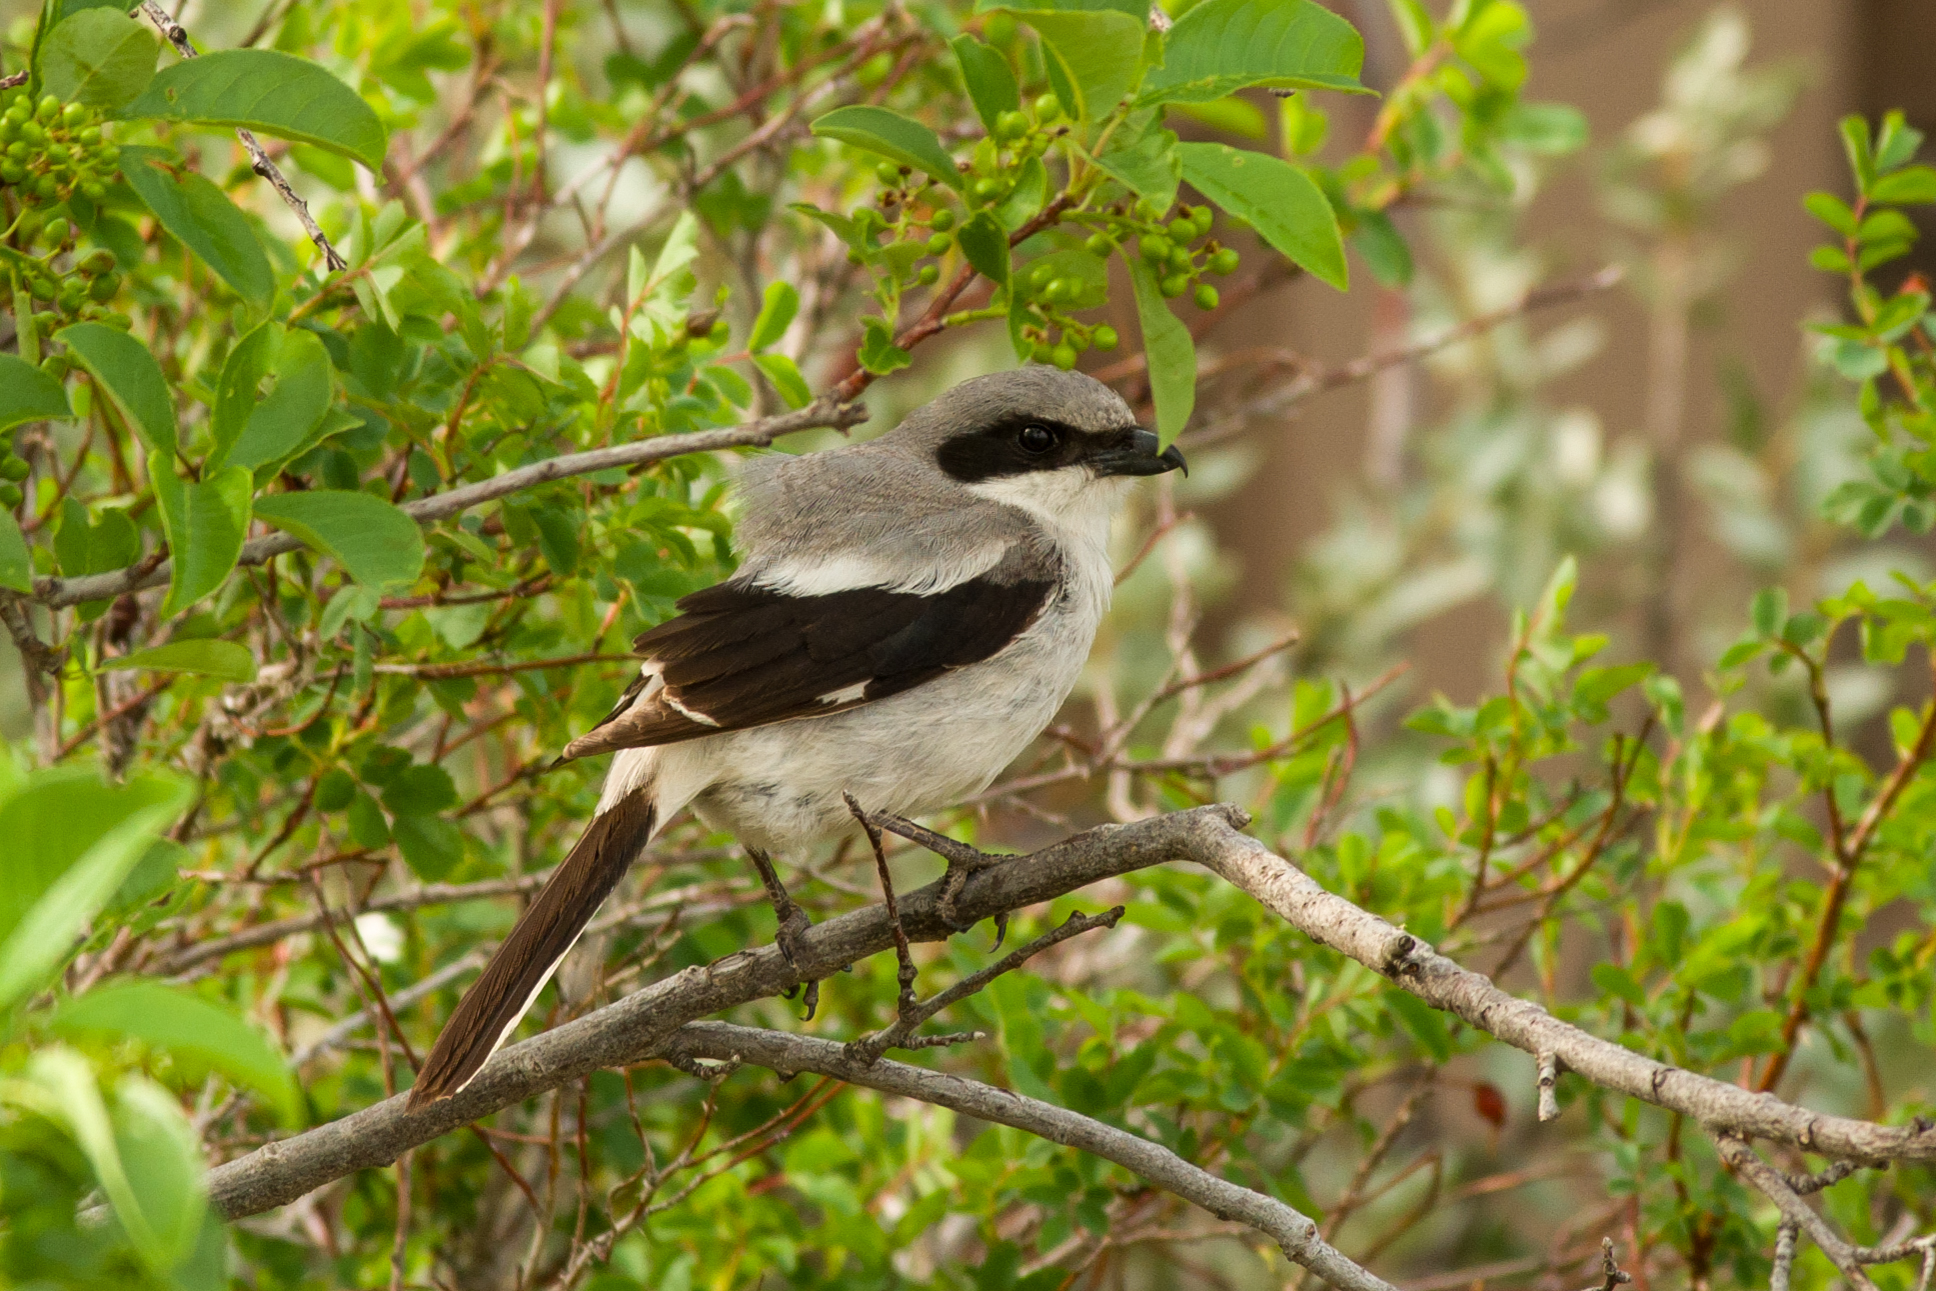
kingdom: Animalia
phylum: Chordata
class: Aves
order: Passeriformes
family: Laniidae
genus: Lanius
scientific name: Lanius ludovicianus
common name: Loggerhead shrike
